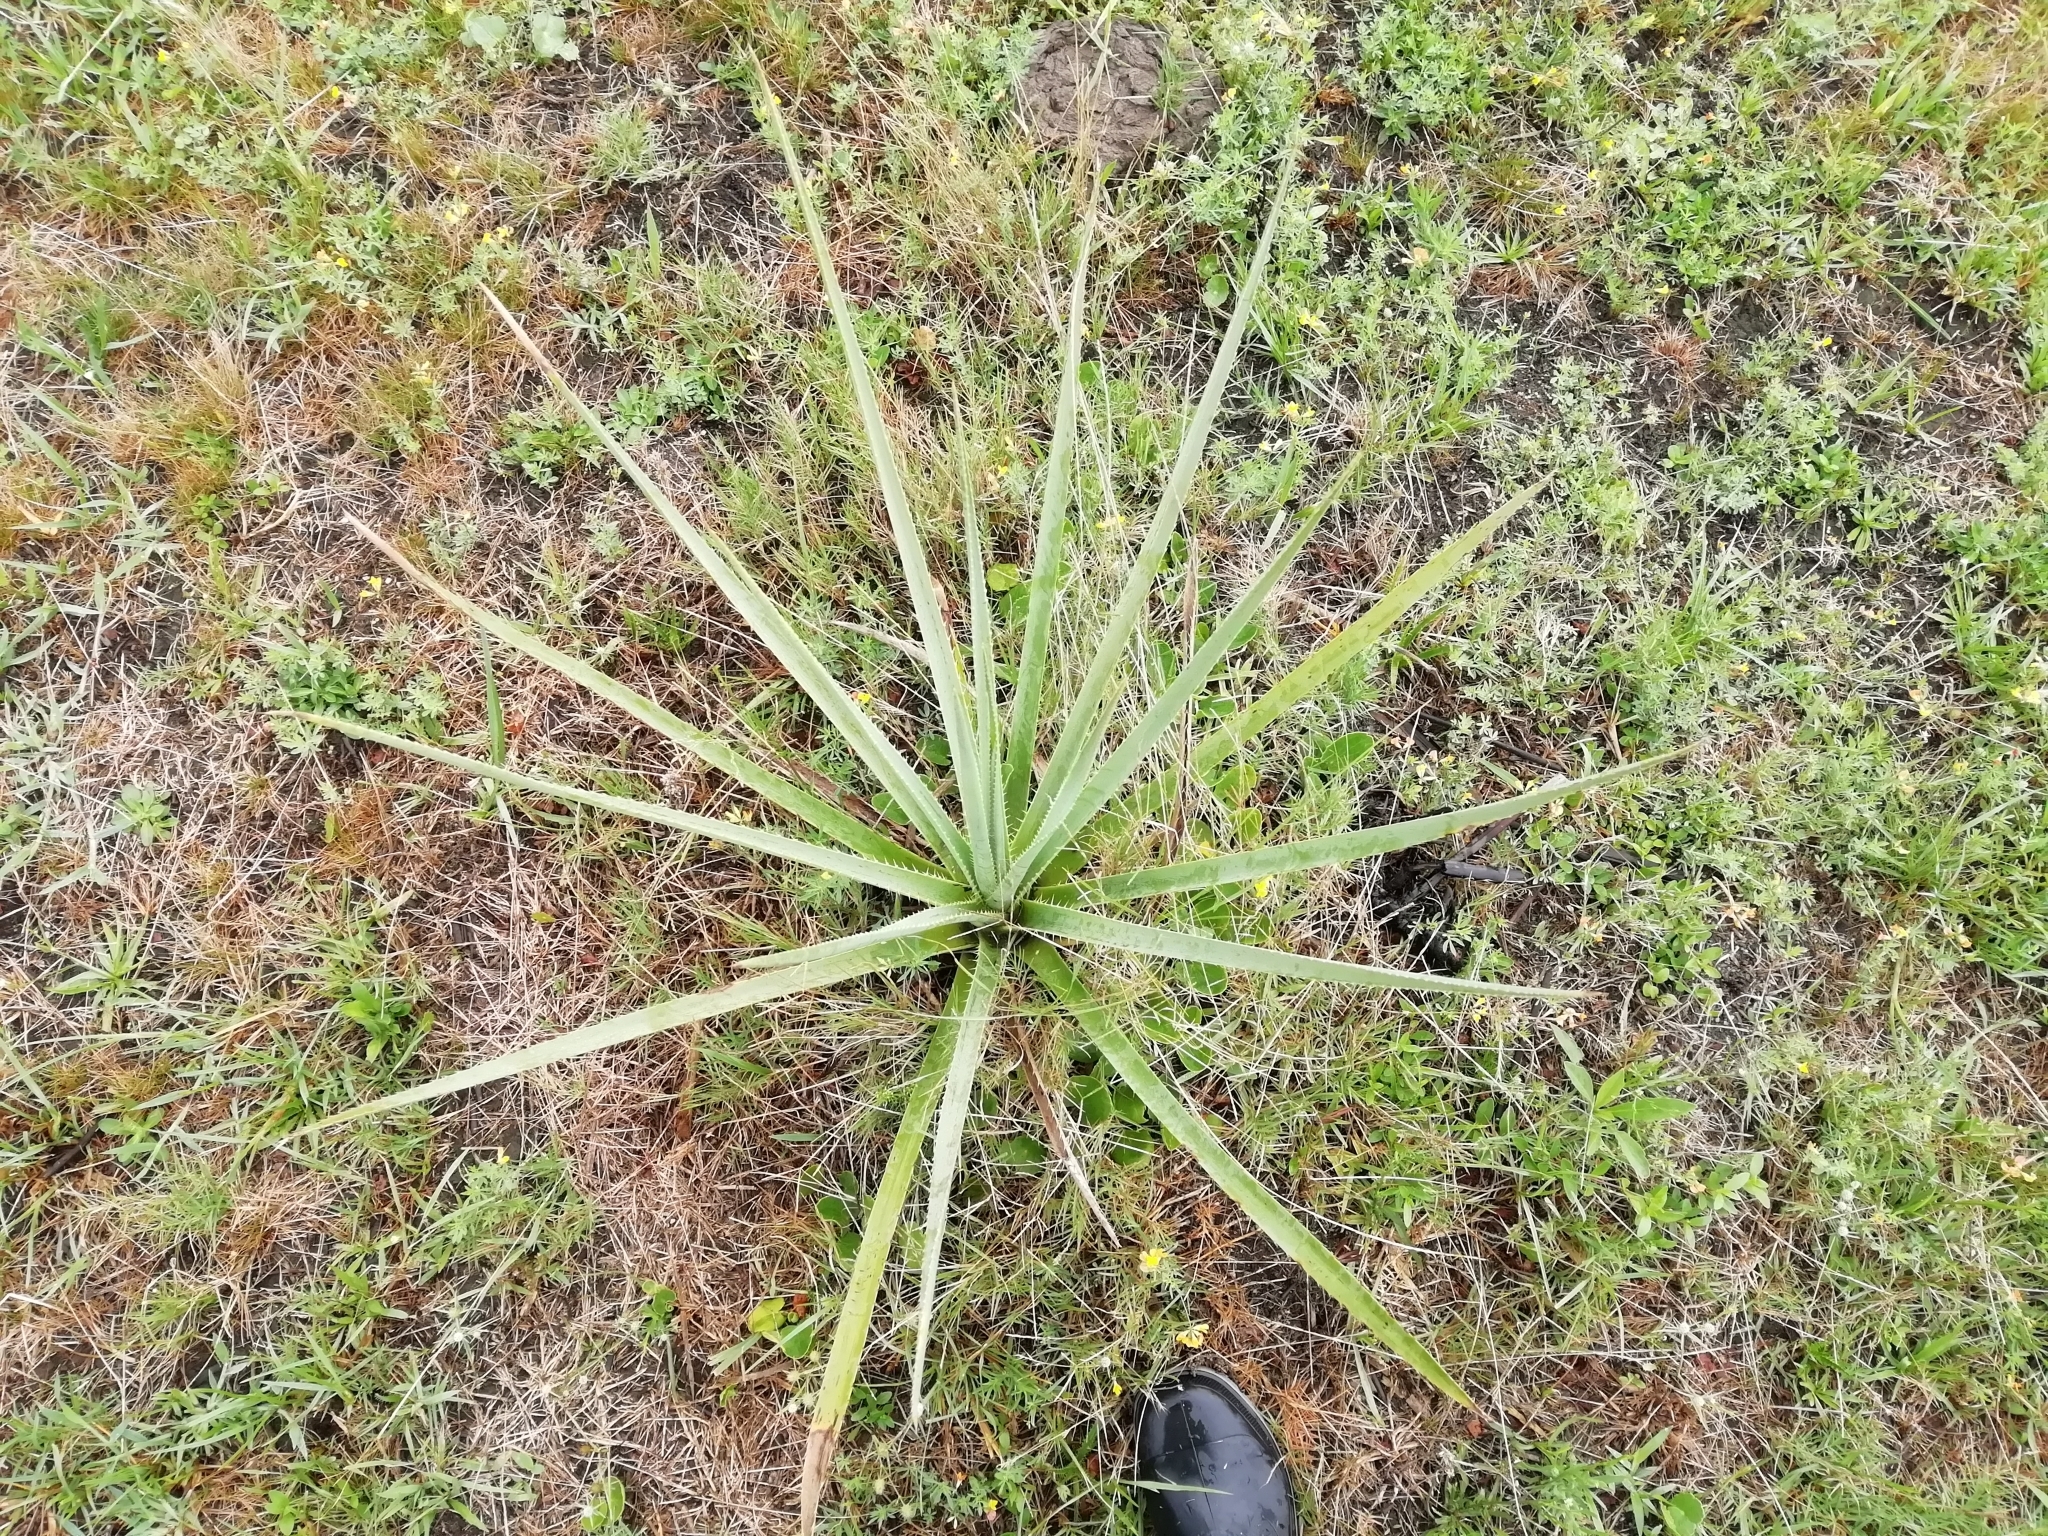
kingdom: Plantae
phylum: Tracheophyta
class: Magnoliopsida
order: Apiales
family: Apiaceae
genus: Eryngium
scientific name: Eryngium pandanifolium
